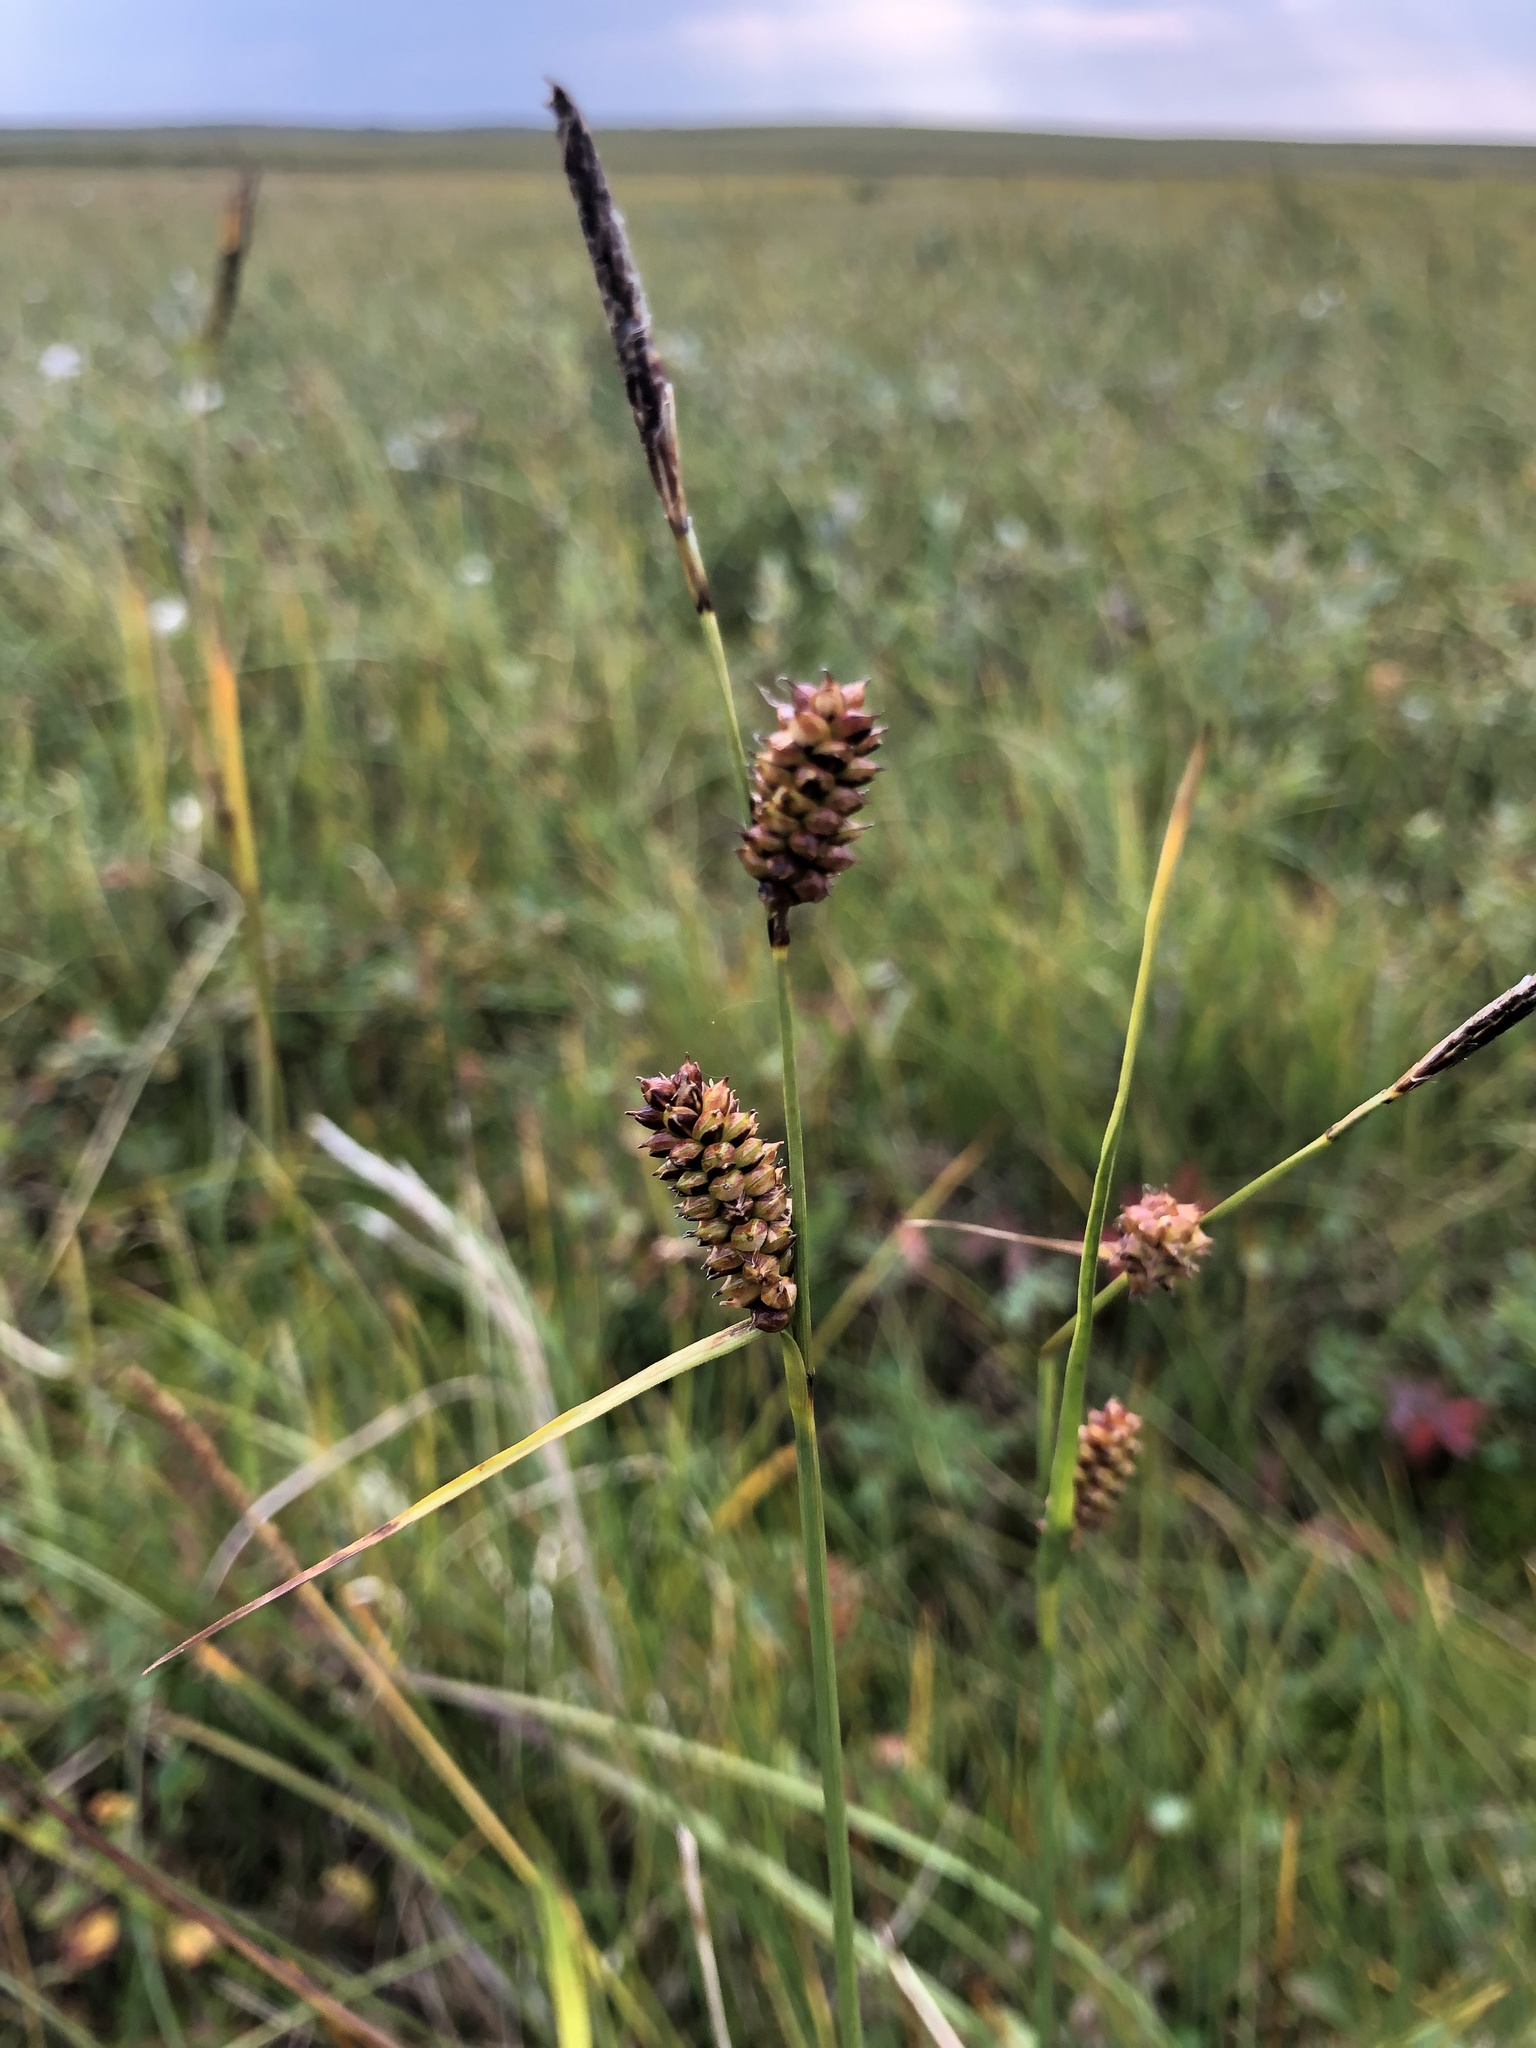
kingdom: Plantae
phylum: Tracheophyta
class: Liliopsida
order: Poales
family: Cyperaceae
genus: Carex
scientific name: Carex rotundata
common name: Round-fruited sedge
